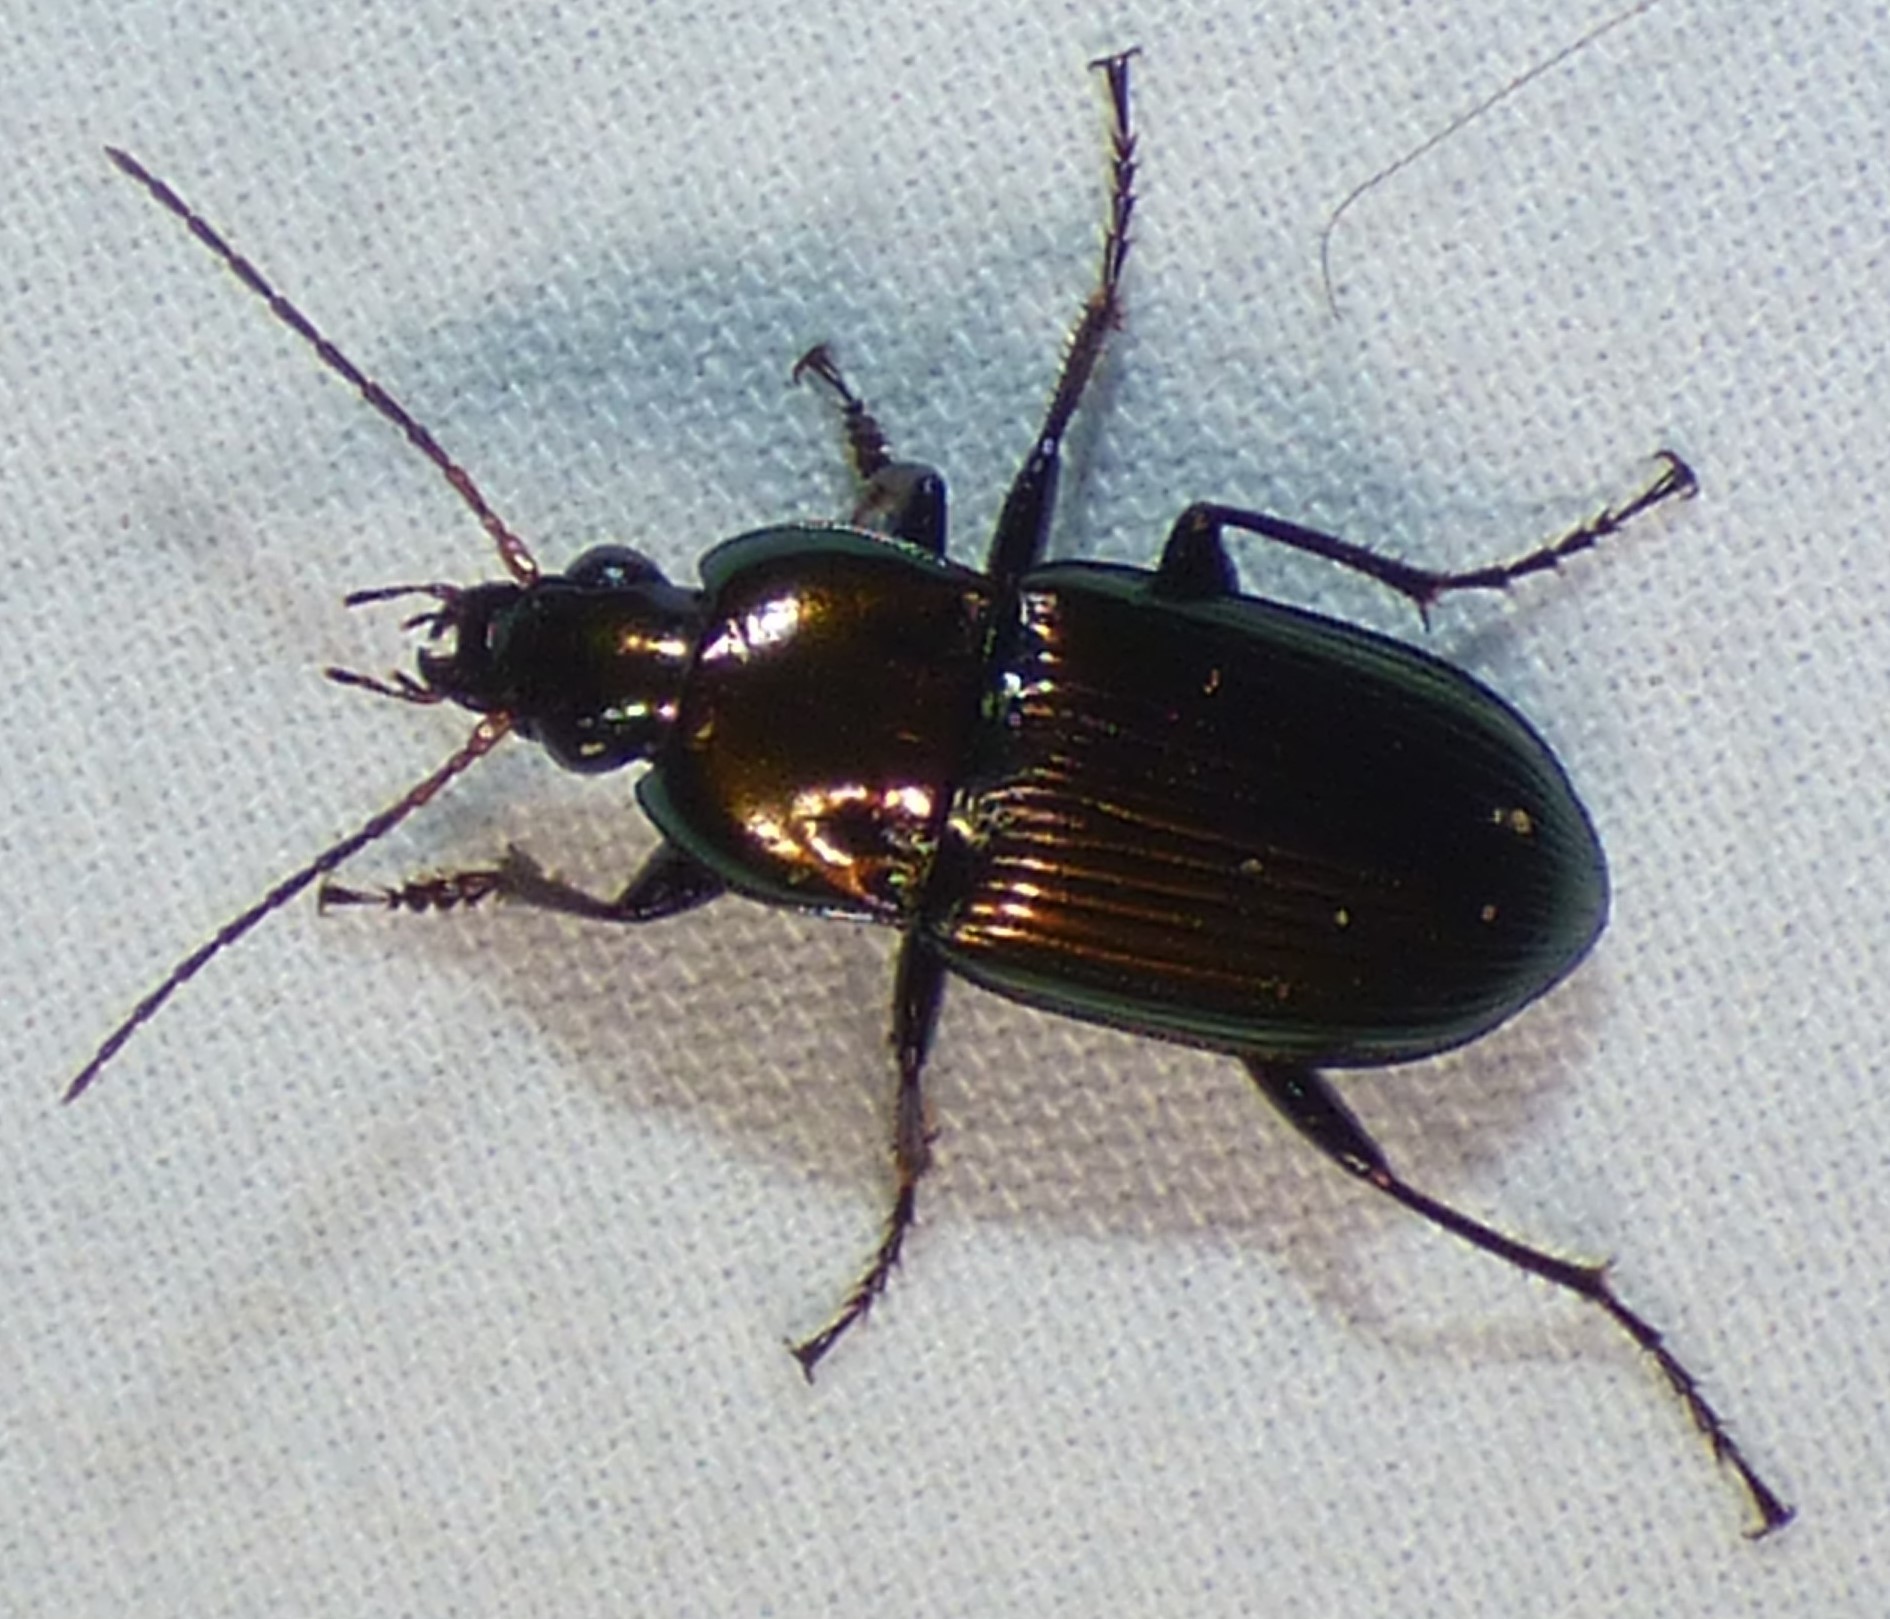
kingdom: Animalia
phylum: Arthropoda
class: Insecta
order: Coleoptera
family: Carabidae
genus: Poecilus
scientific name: Poecilus chalcites
